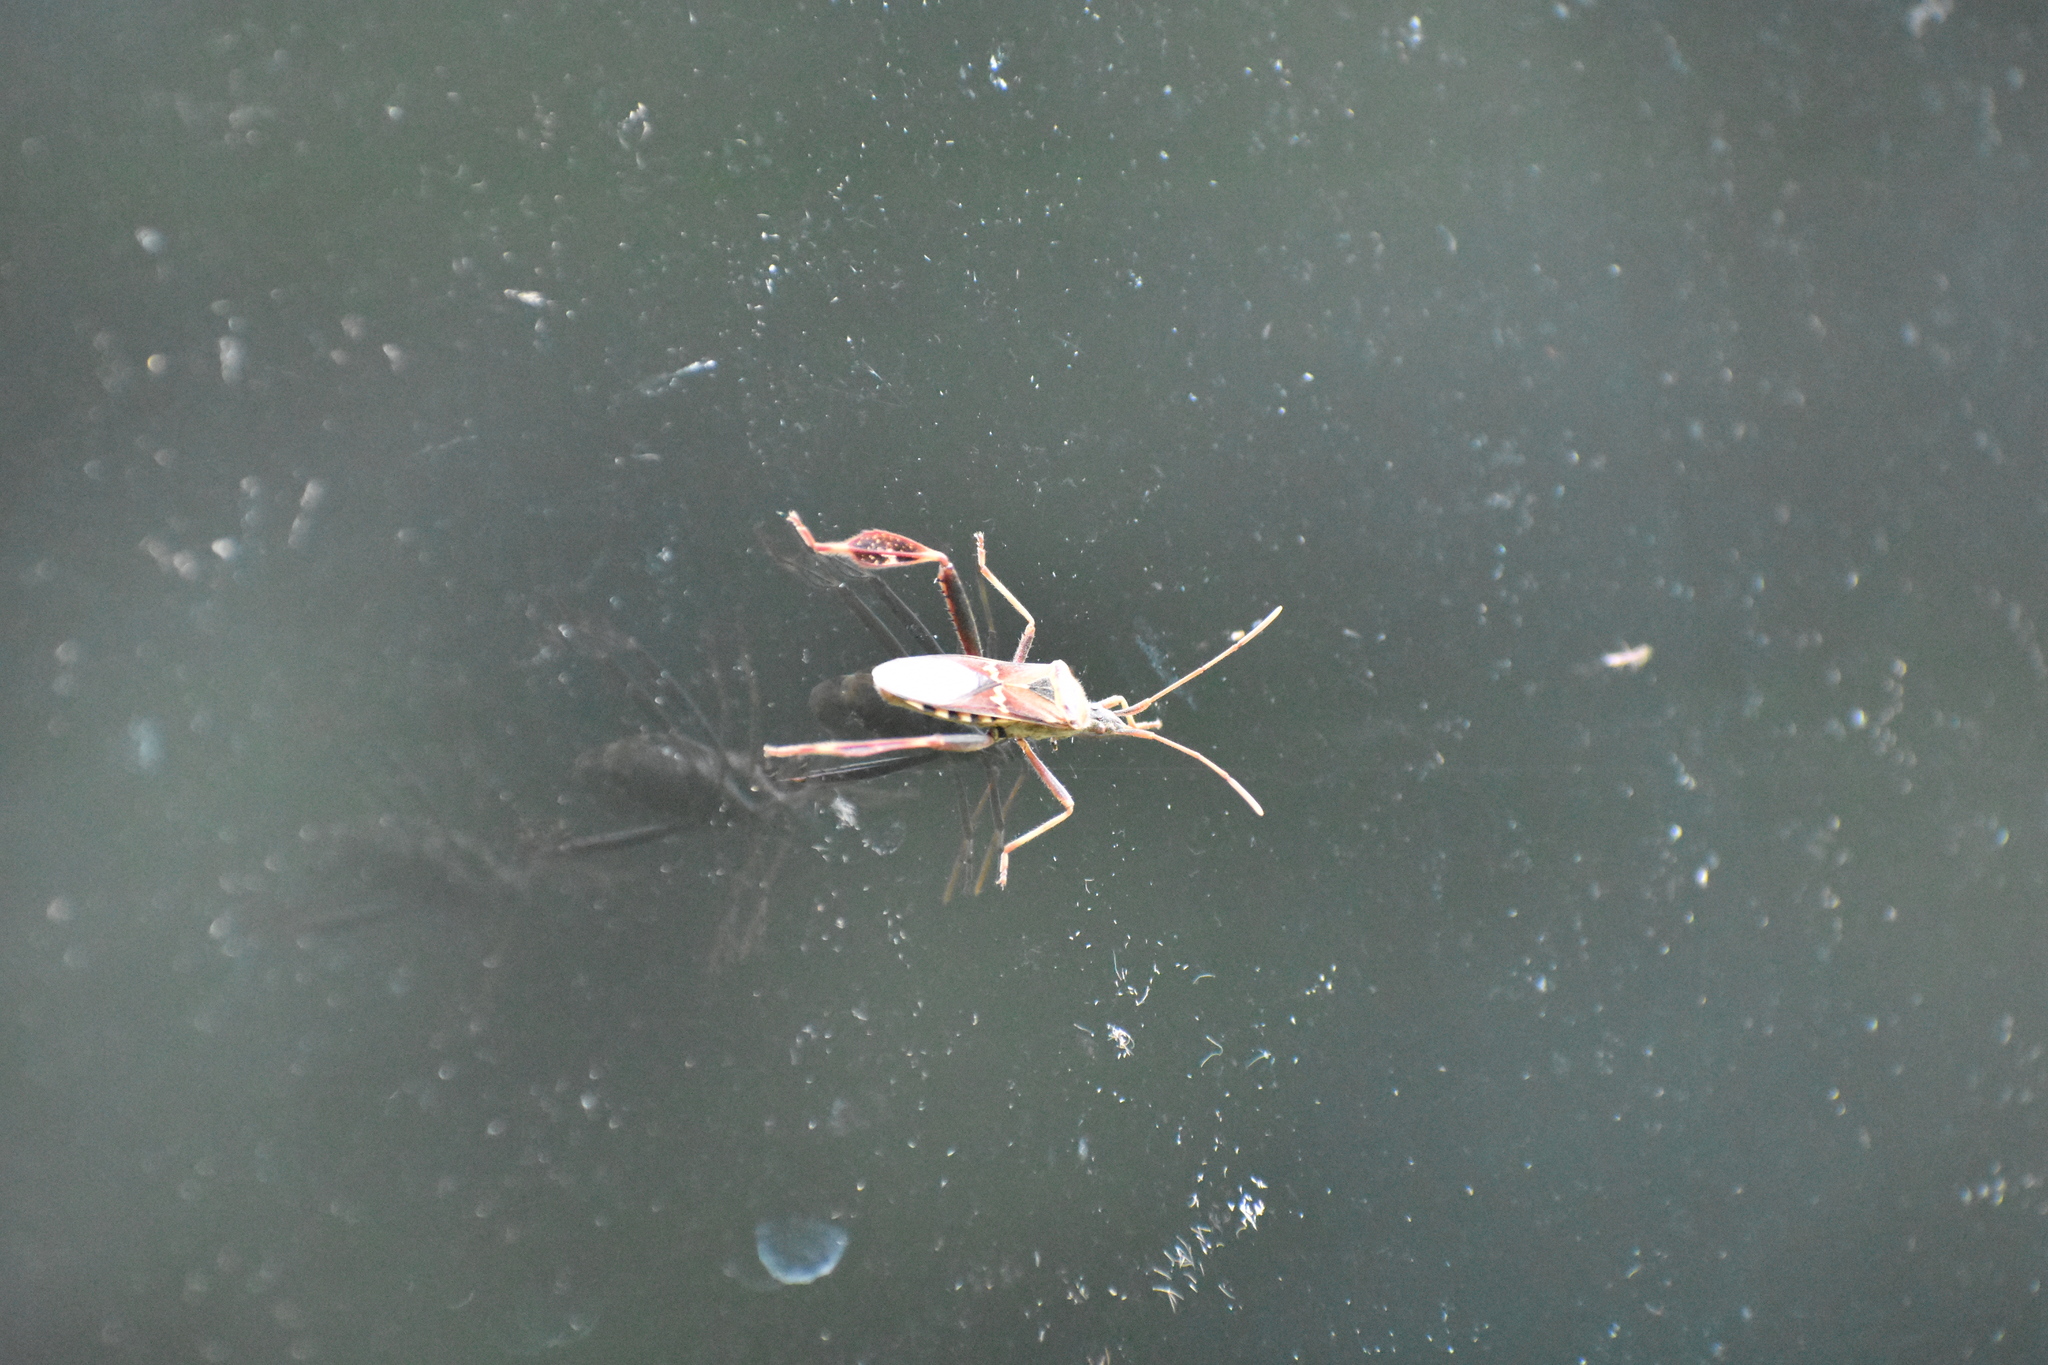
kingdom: Animalia
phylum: Arthropoda
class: Insecta
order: Hemiptera
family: Coreidae
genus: Leptoglossus
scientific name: Leptoglossus clypealis
